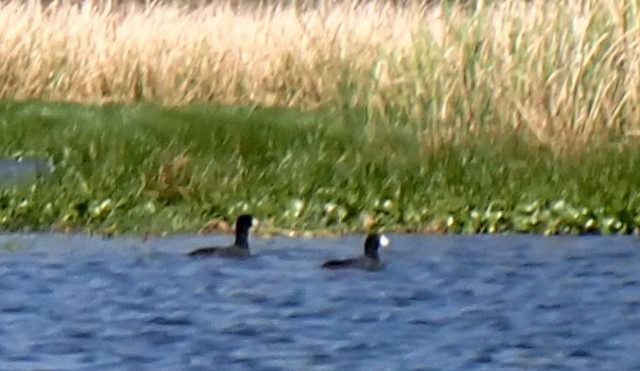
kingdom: Animalia
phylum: Chordata
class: Aves
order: Gruiformes
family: Rallidae
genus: Fulica
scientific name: Fulica americana
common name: American coot
